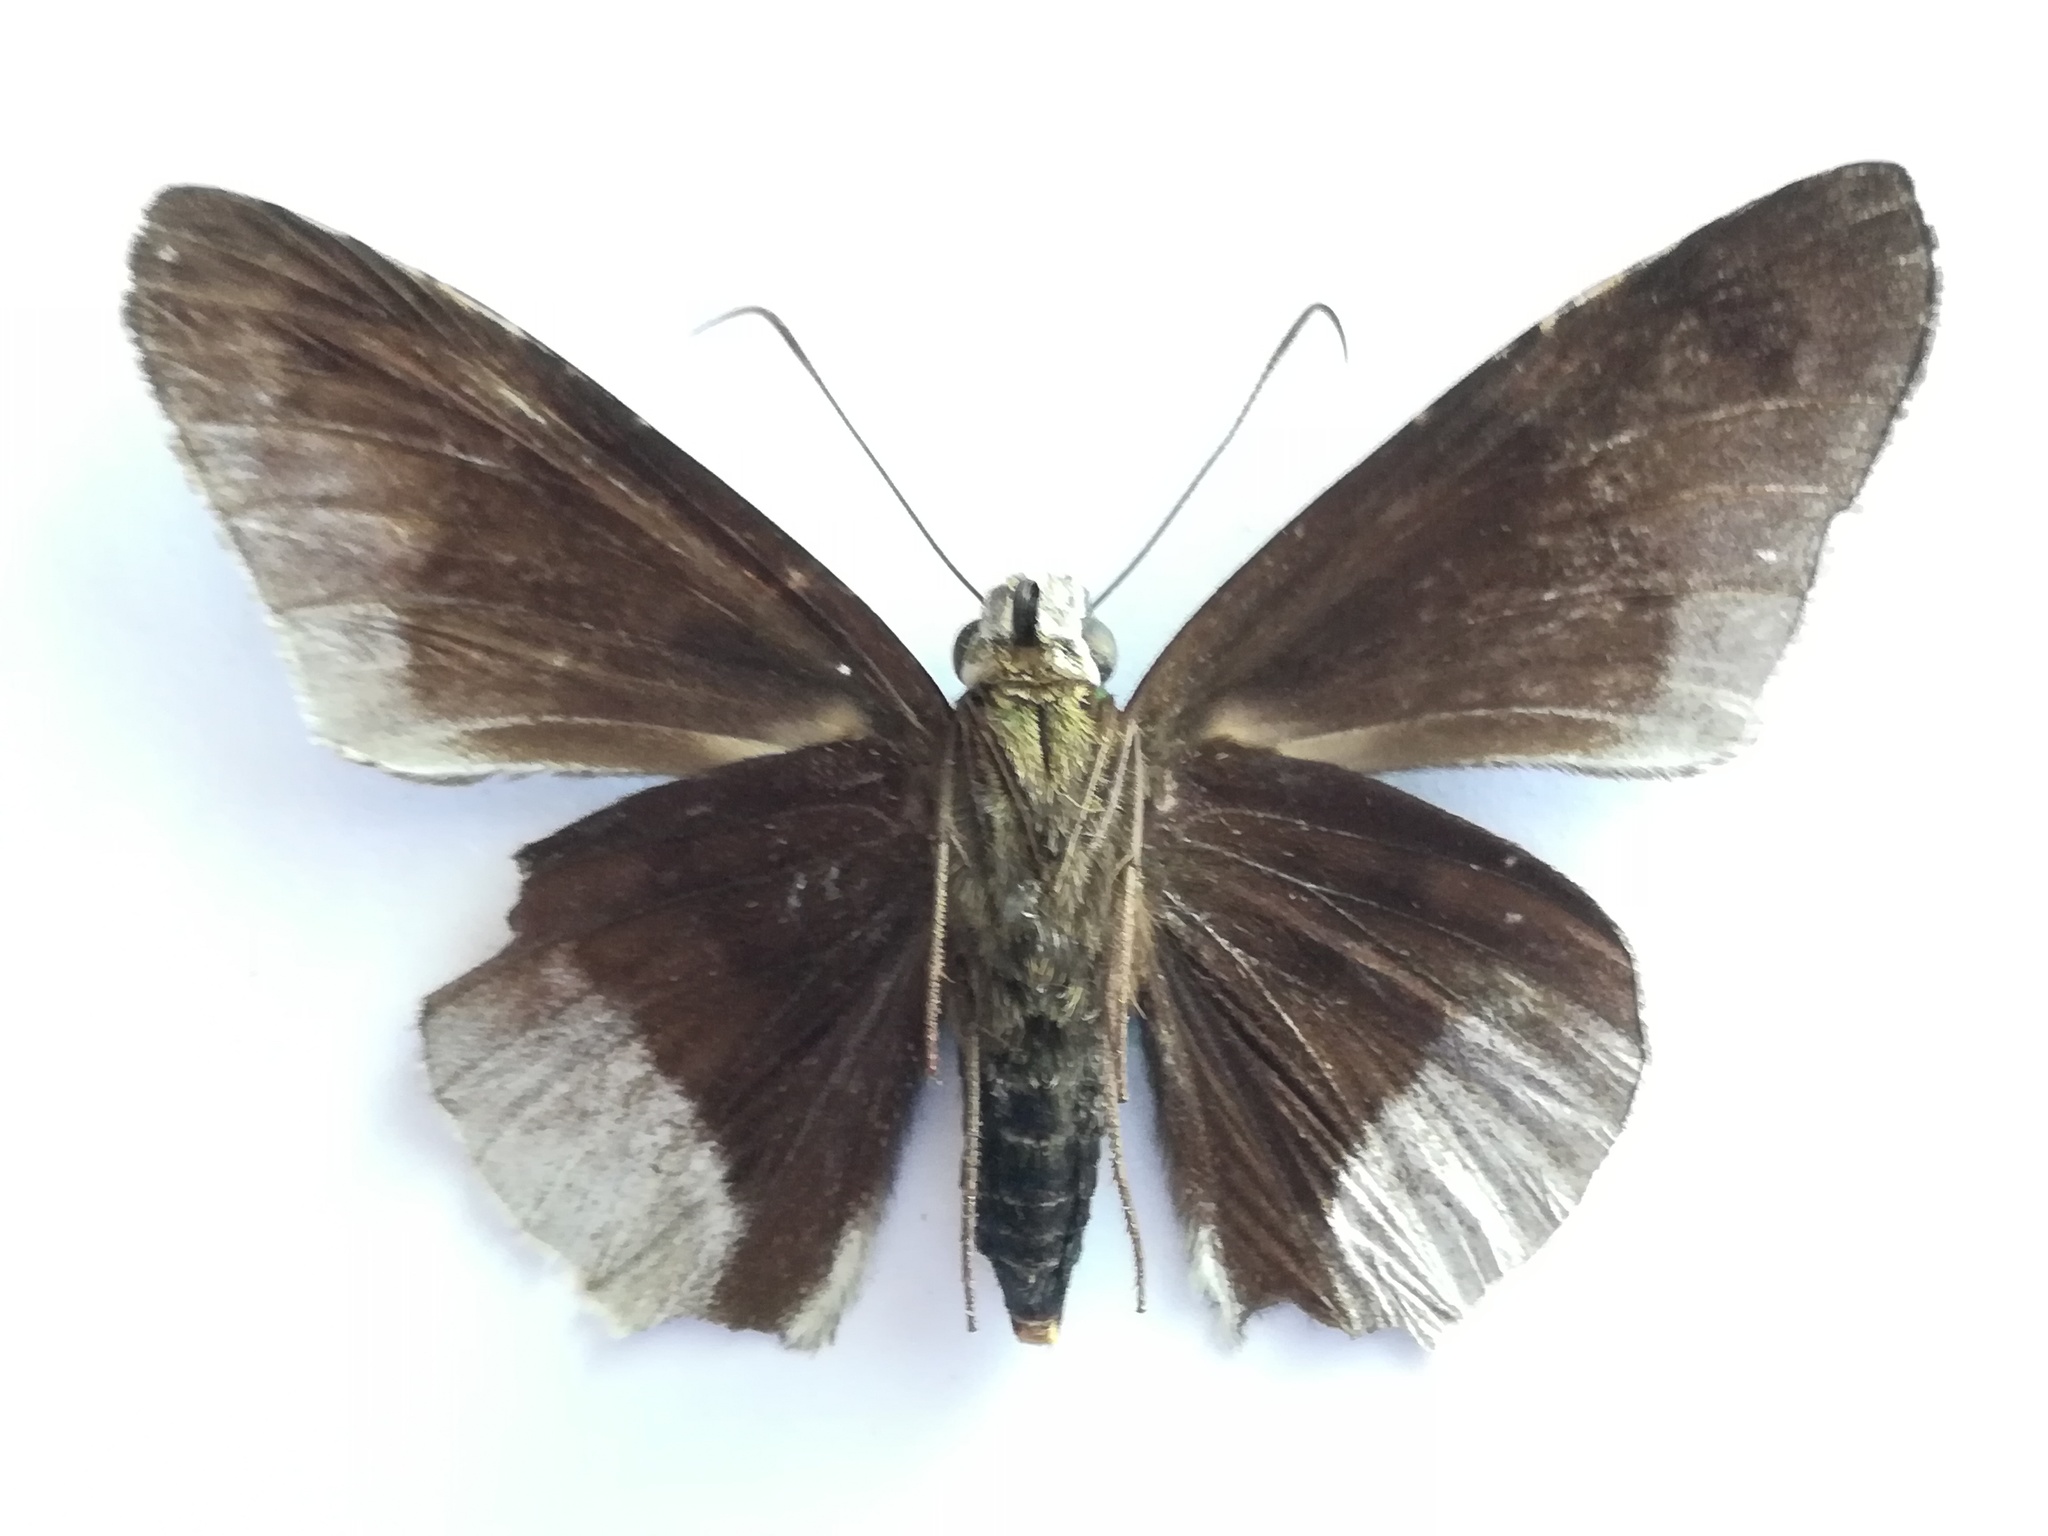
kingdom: Animalia
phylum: Arthropoda
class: Insecta
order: Lepidoptera
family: Hesperiidae
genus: Astraptes
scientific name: Astraptes alardus
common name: Frosted flasher
